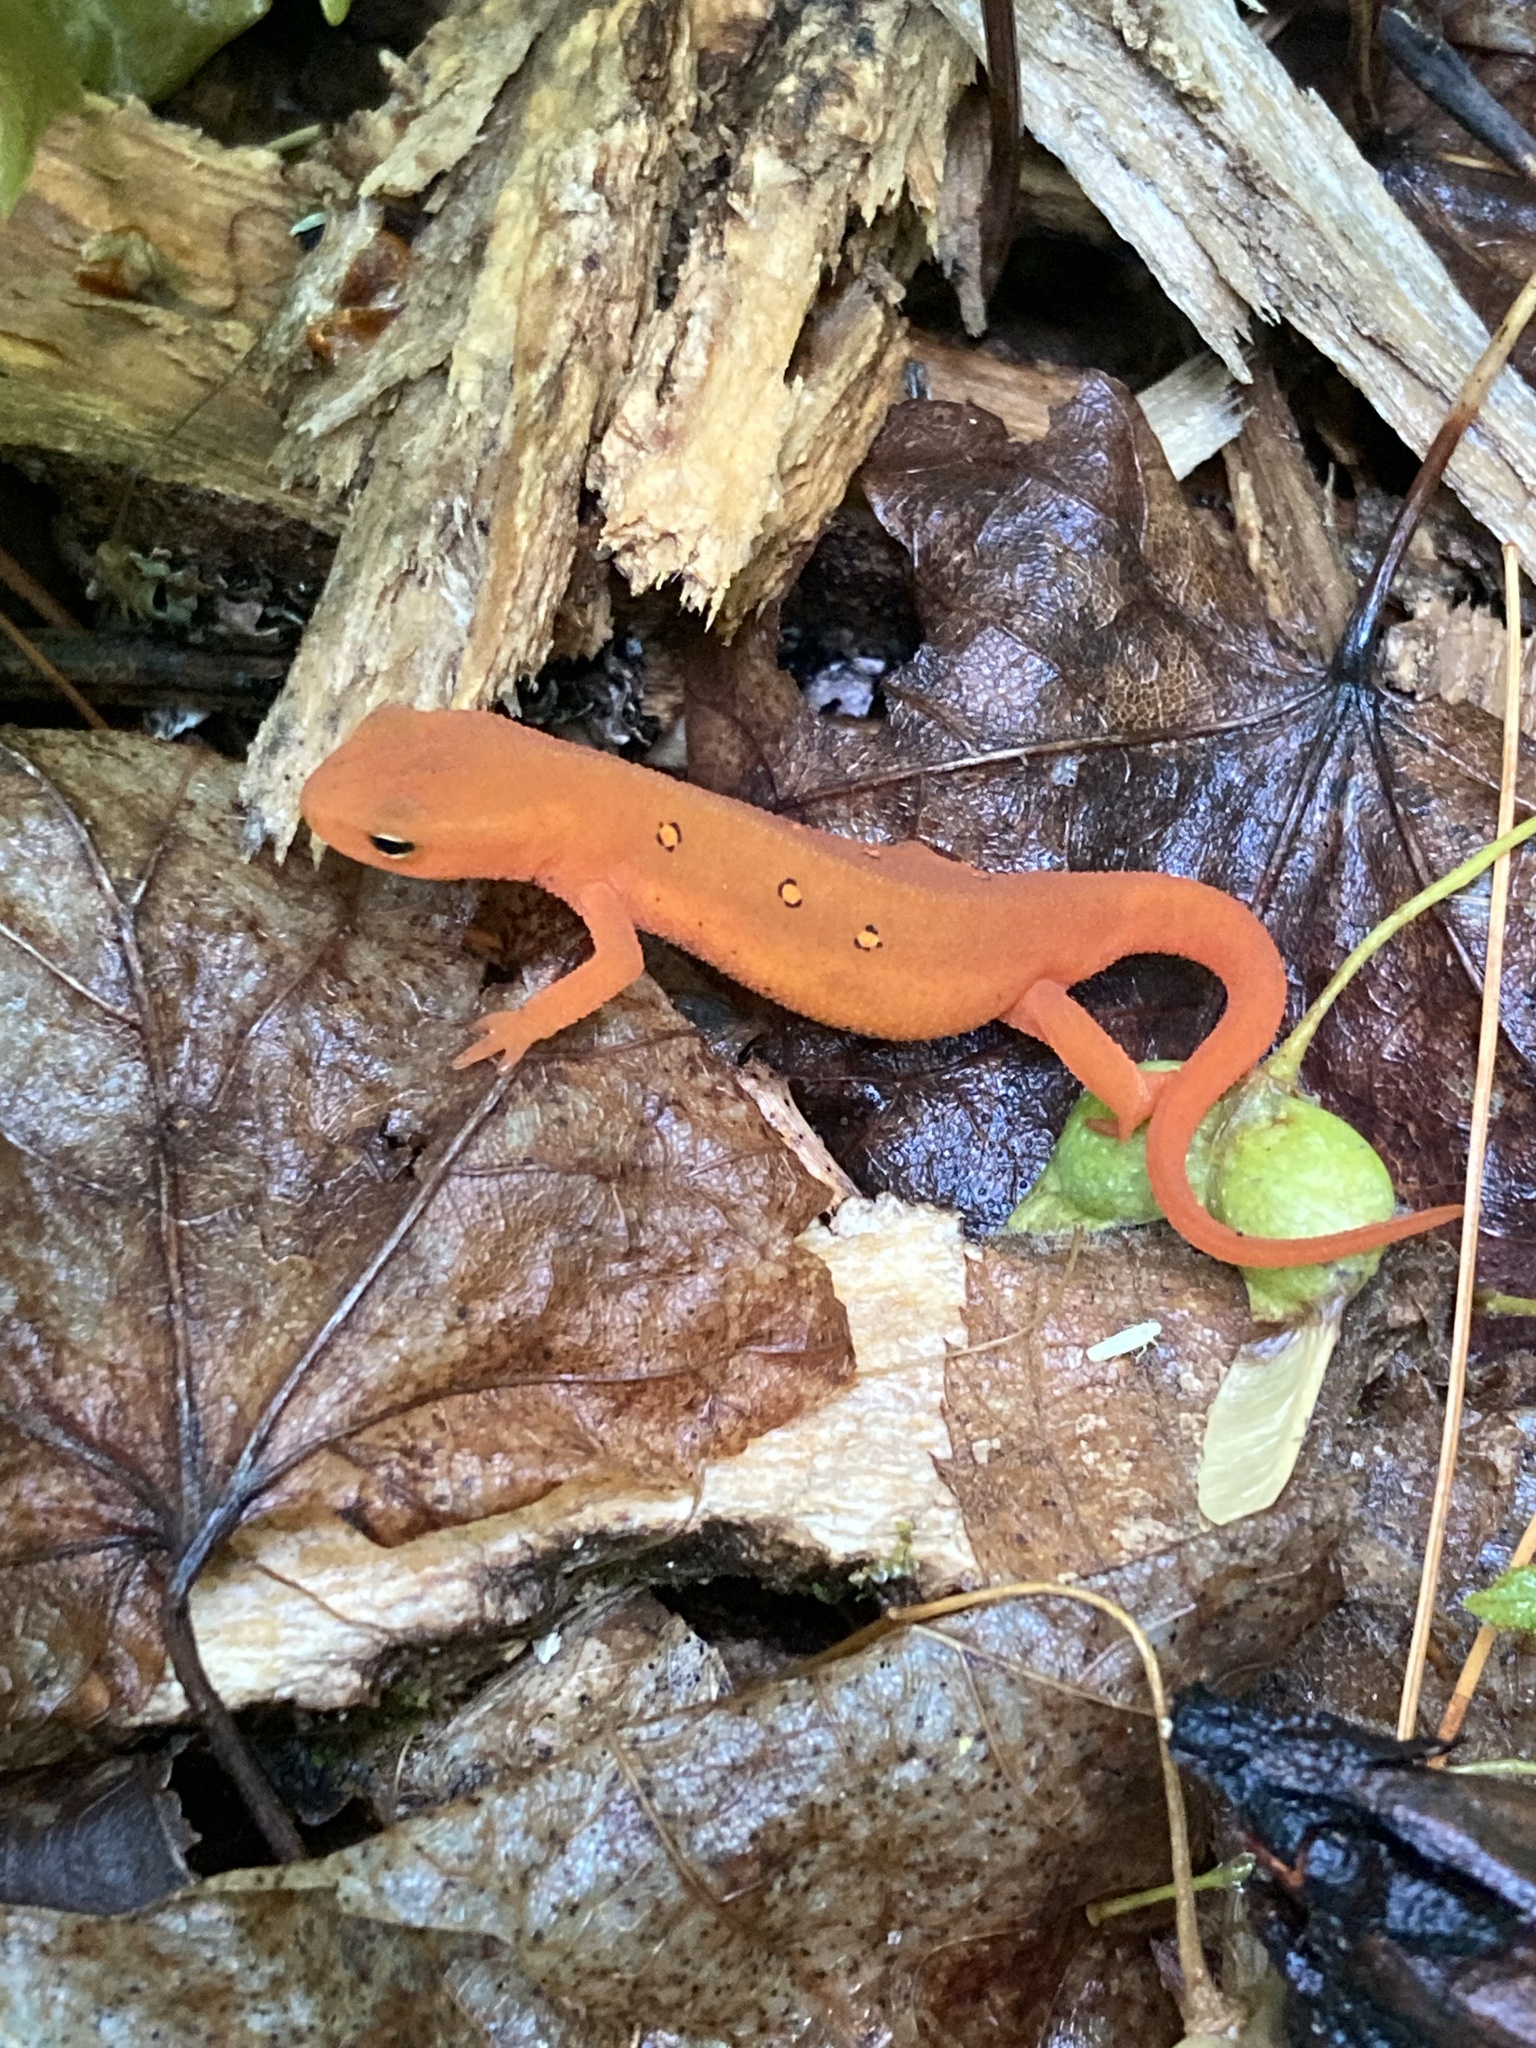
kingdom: Animalia
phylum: Chordata
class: Amphibia
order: Caudata
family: Salamandridae
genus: Notophthalmus
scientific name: Notophthalmus viridescens
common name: Eastern newt
